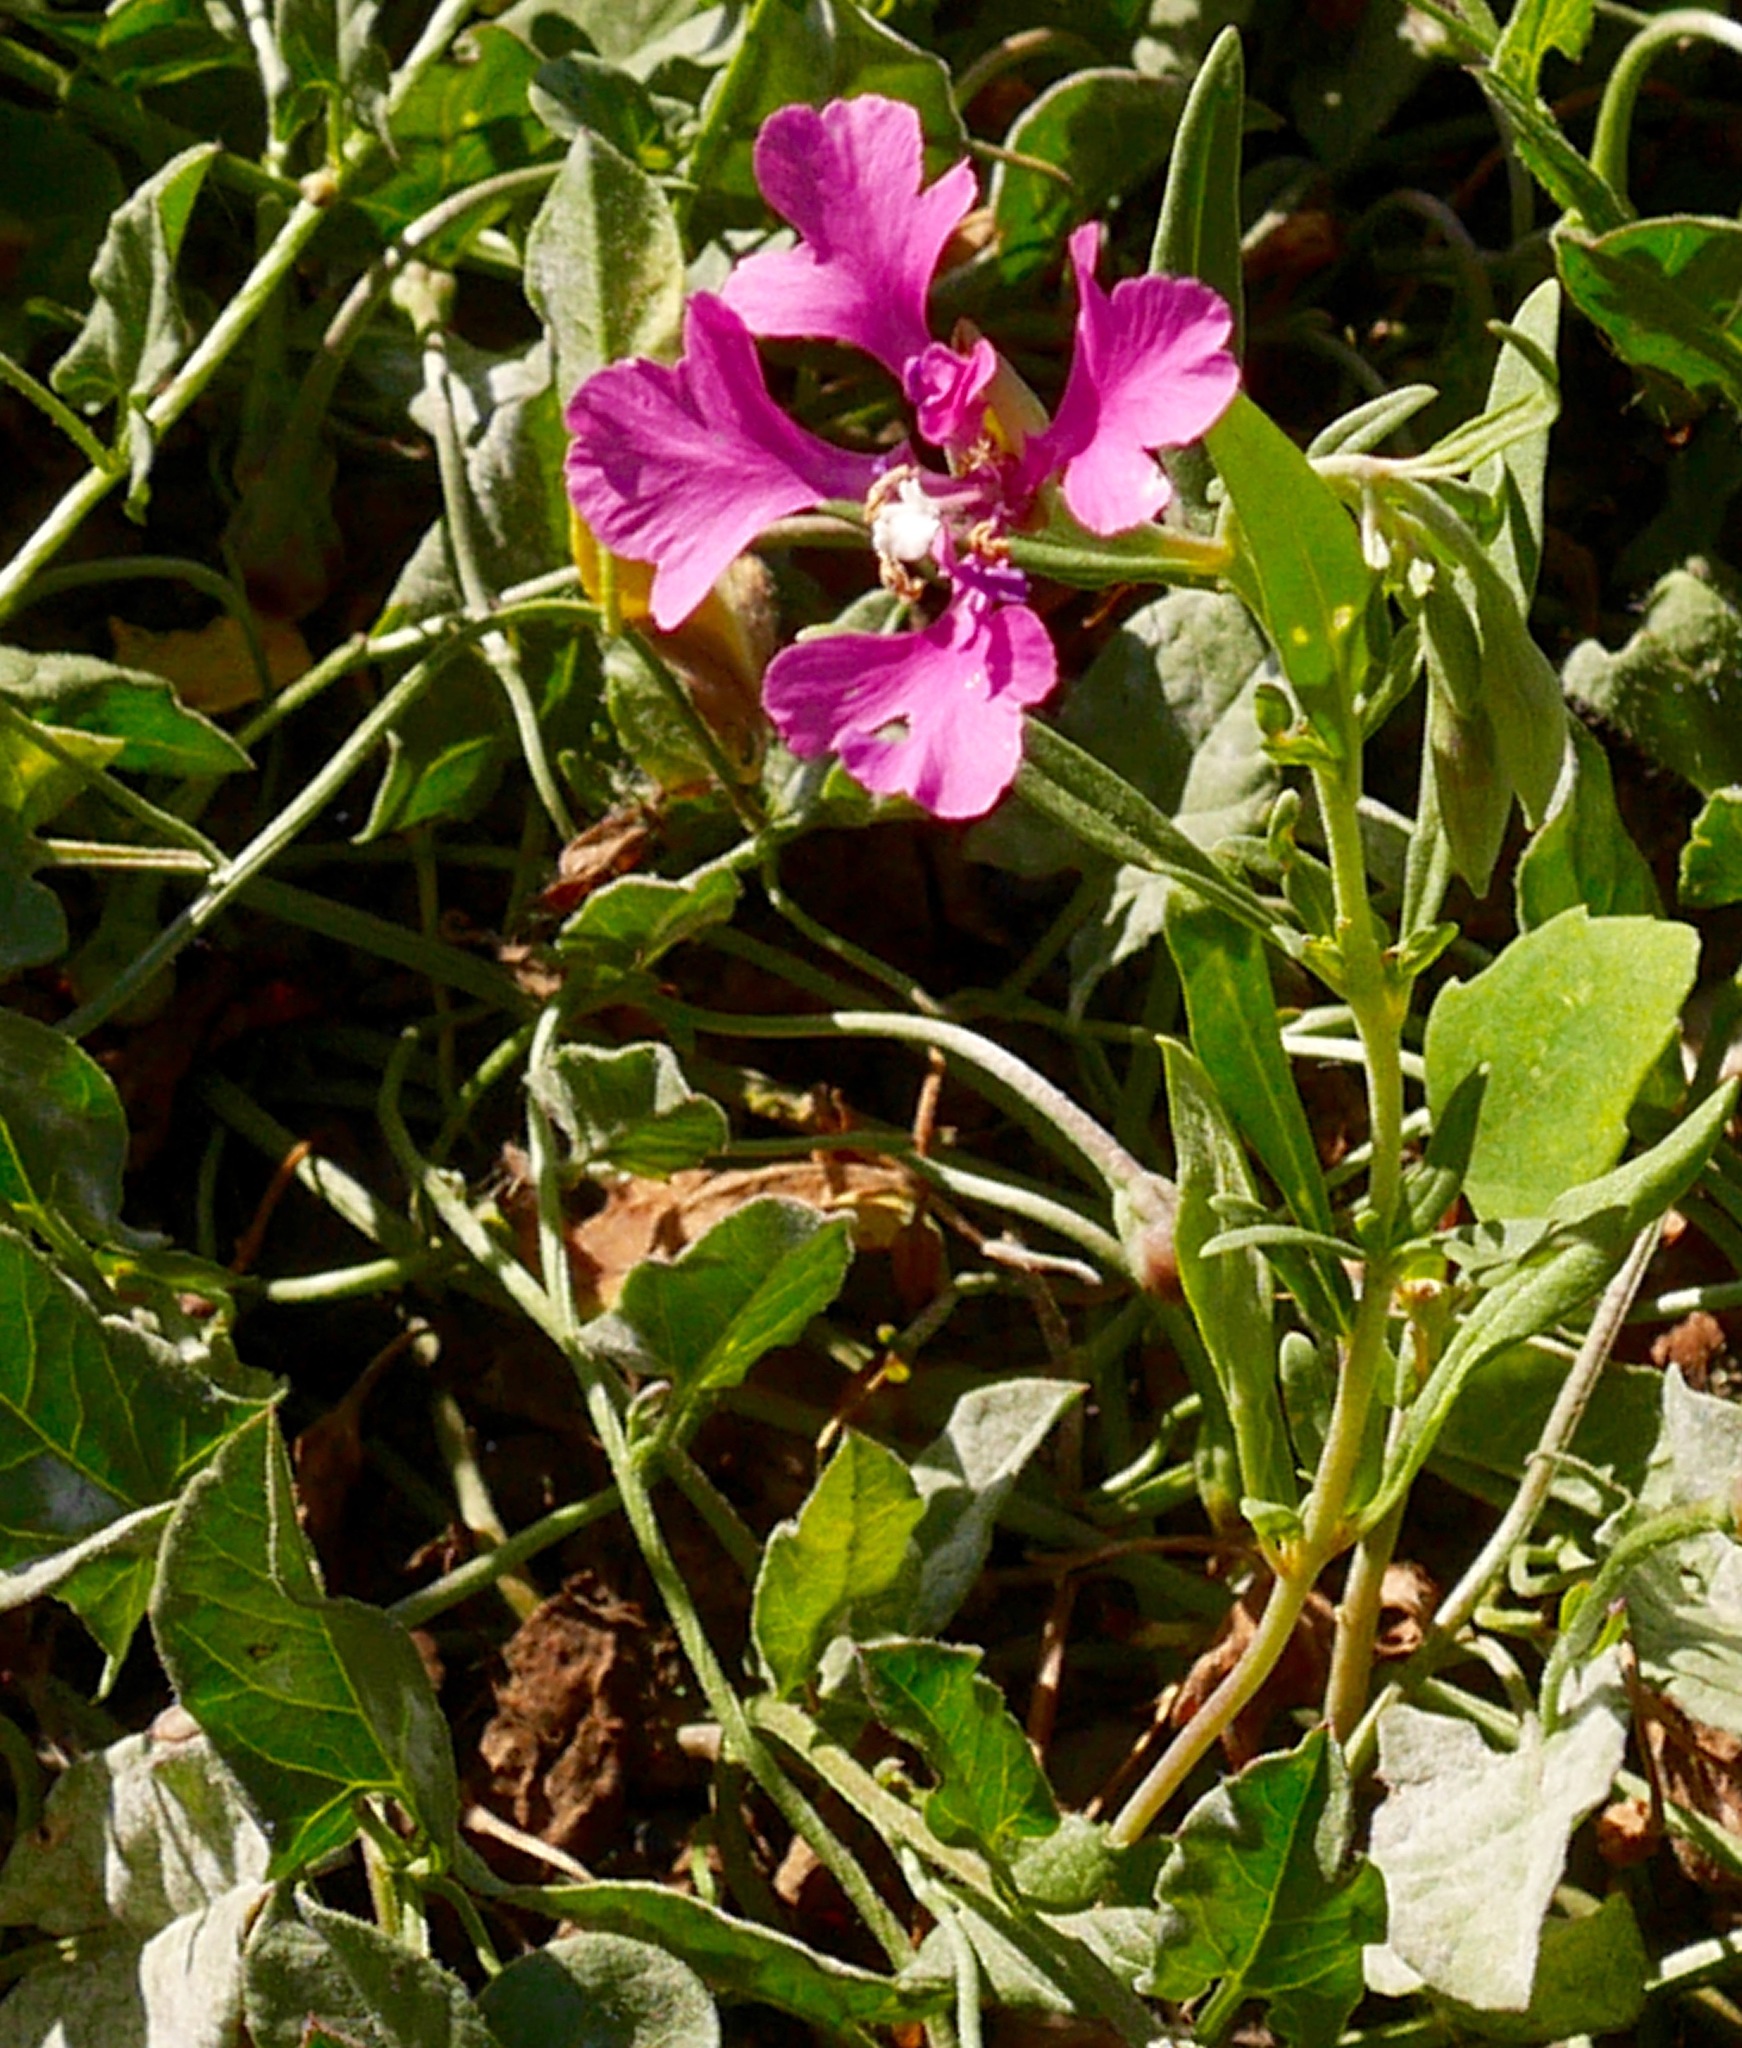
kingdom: Plantae
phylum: Tracheophyta
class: Magnoliopsida
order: Myrtales
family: Onagraceae
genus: Clarkia
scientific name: Clarkia pulchella
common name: Deer horn
